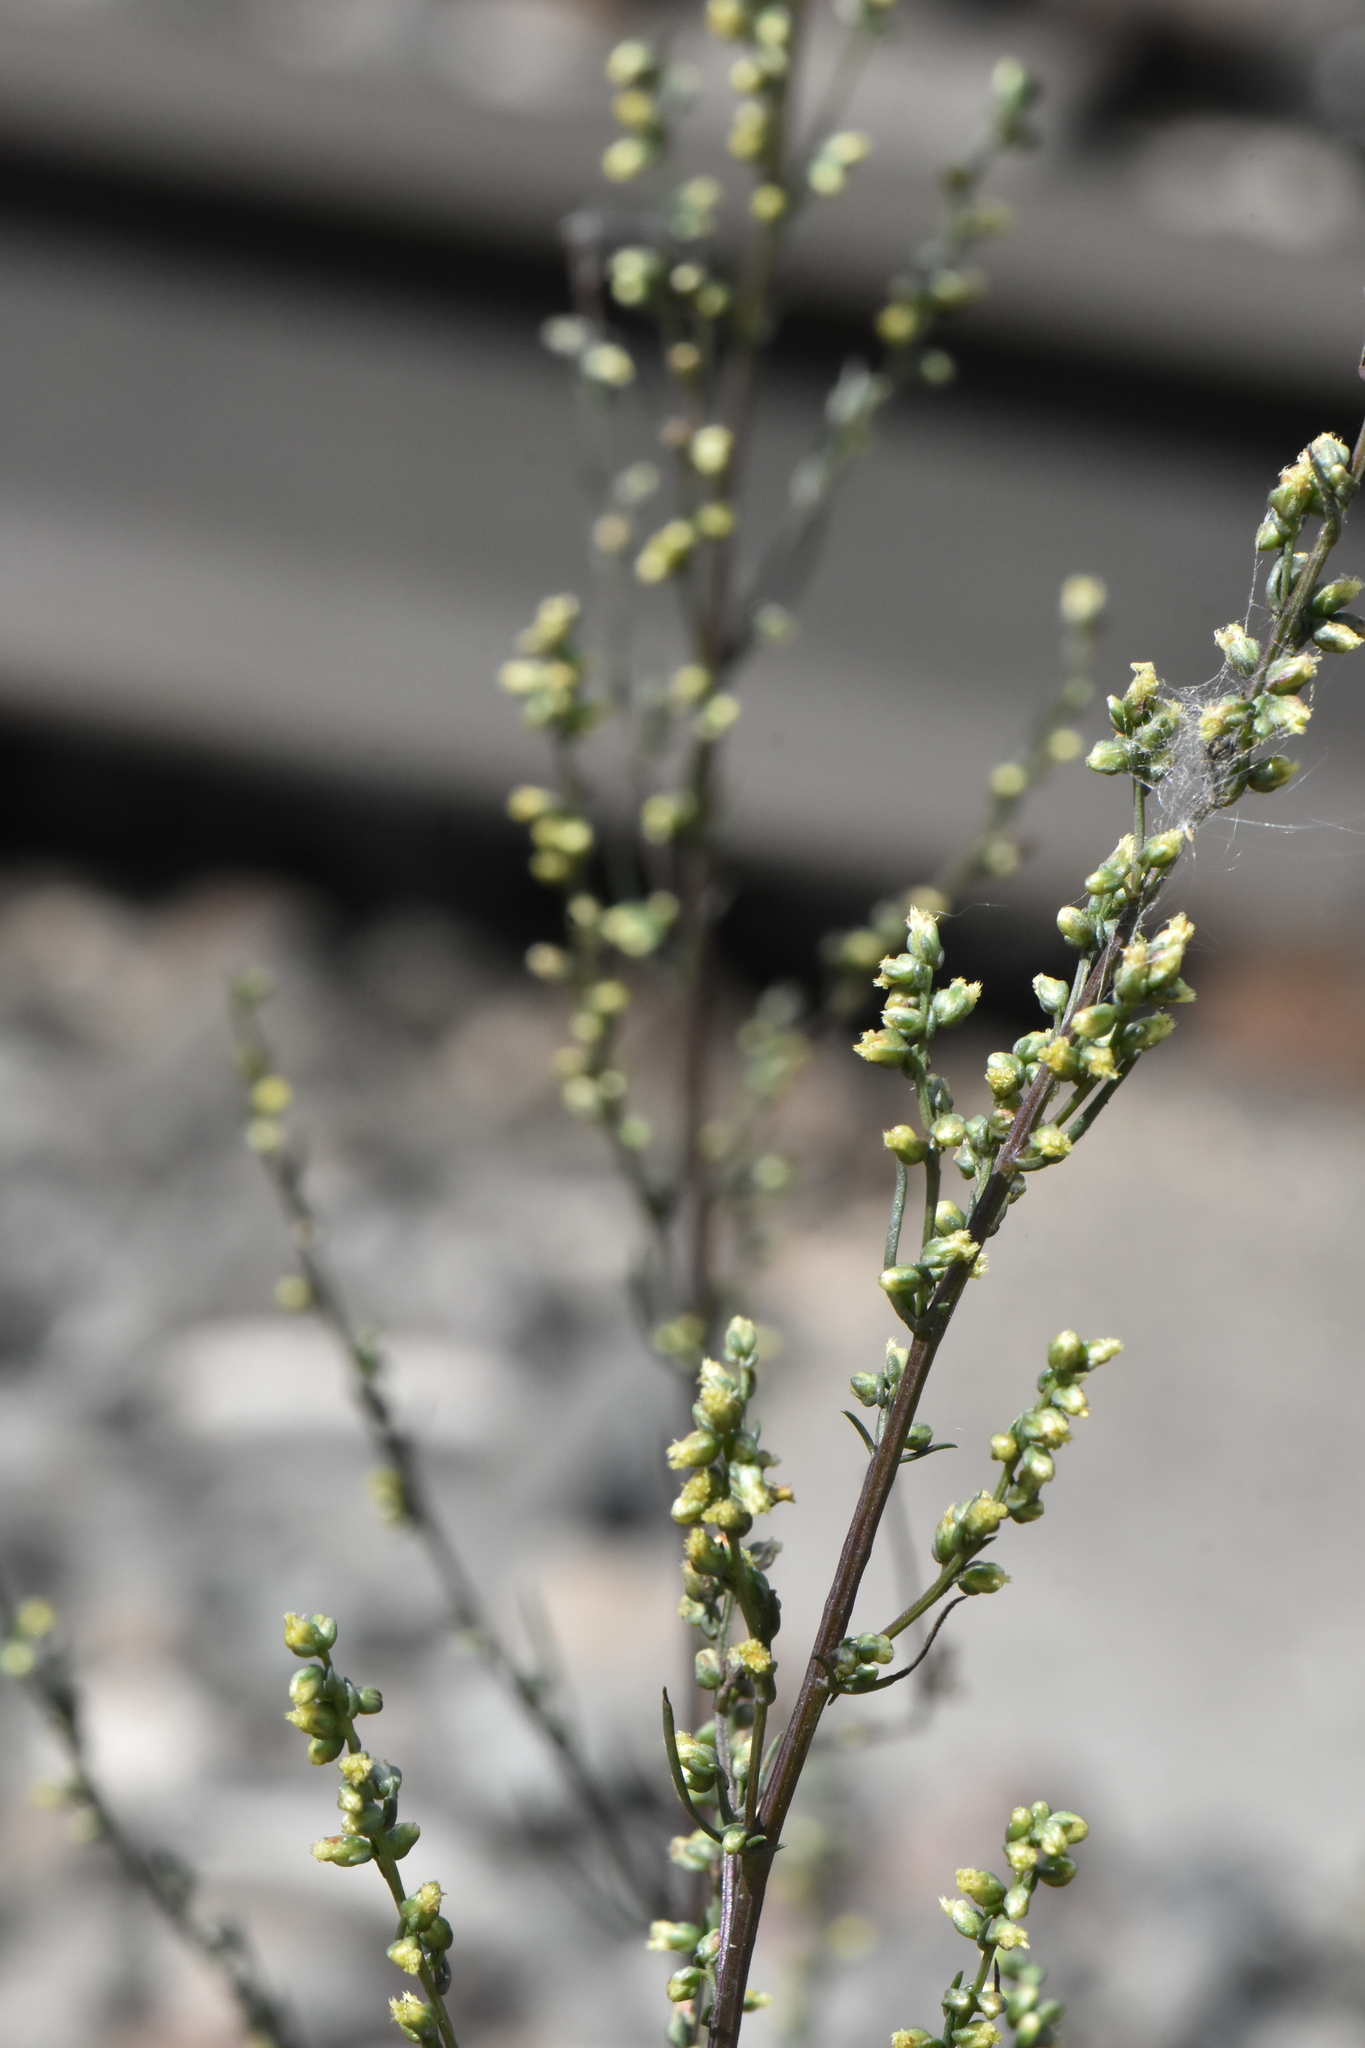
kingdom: Plantae
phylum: Tracheophyta
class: Magnoliopsida
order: Asterales
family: Asteraceae
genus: Artemisia
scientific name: Artemisia campestris
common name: Field wormwood
